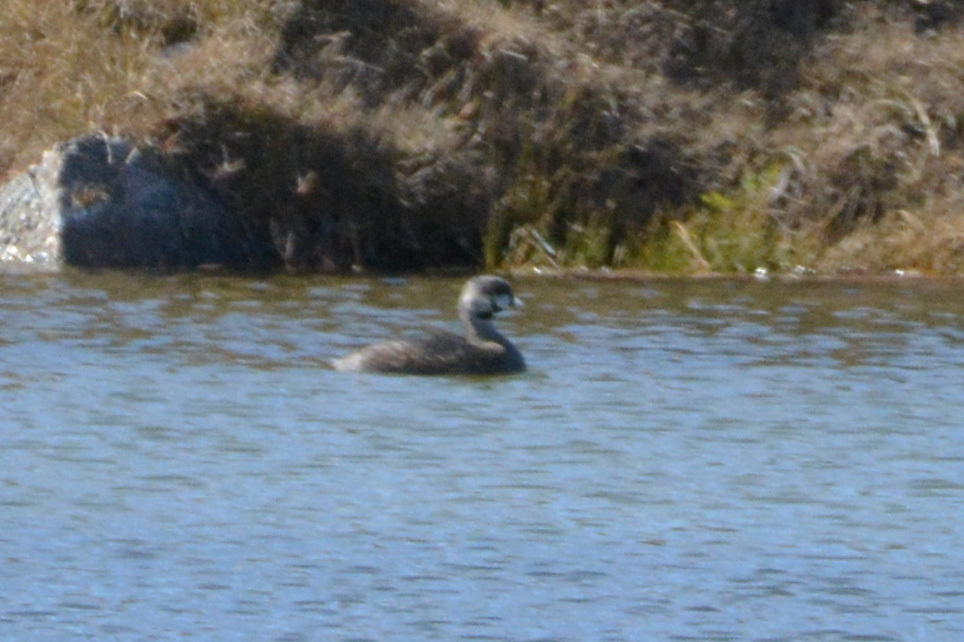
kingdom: Animalia
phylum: Chordata
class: Aves
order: Podicipediformes
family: Podicipedidae
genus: Podilymbus
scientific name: Podilymbus podiceps
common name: Pied-billed grebe
